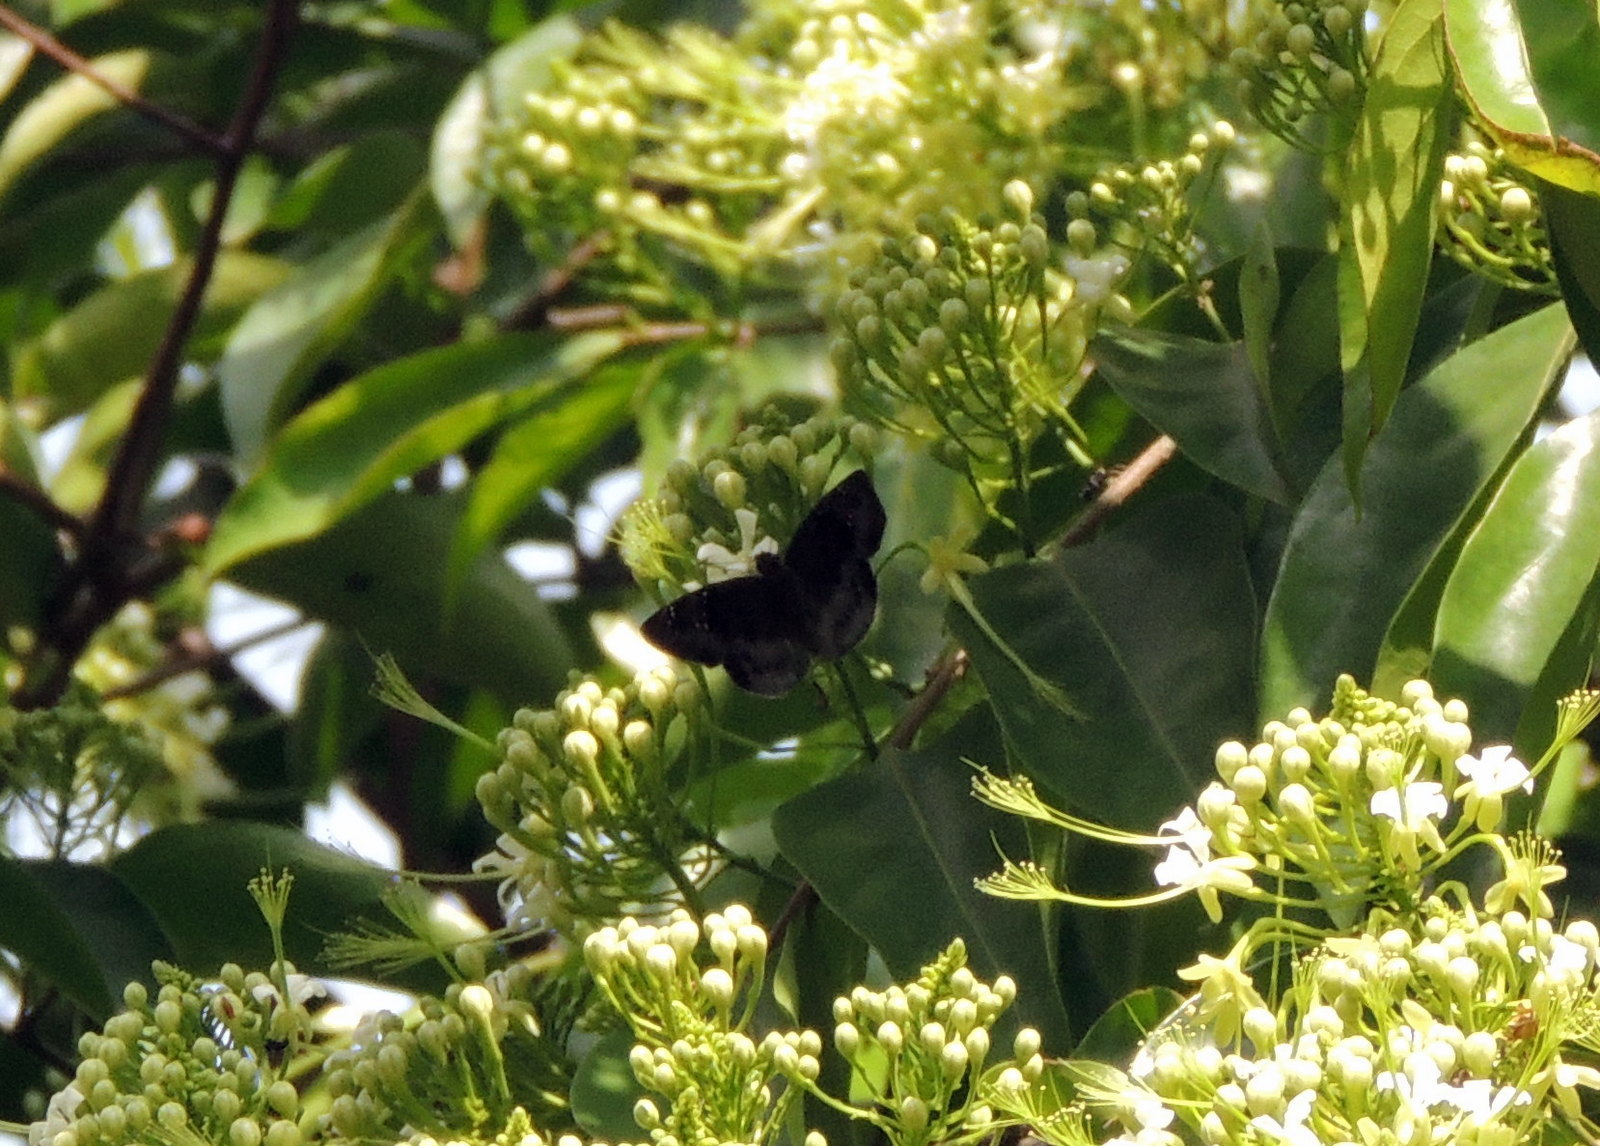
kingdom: Animalia
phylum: Arthropoda
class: Insecta
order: Lepidoptera
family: Hesperiidae
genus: Tagiades
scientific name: Tagiades flesus
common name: Clouded flat
